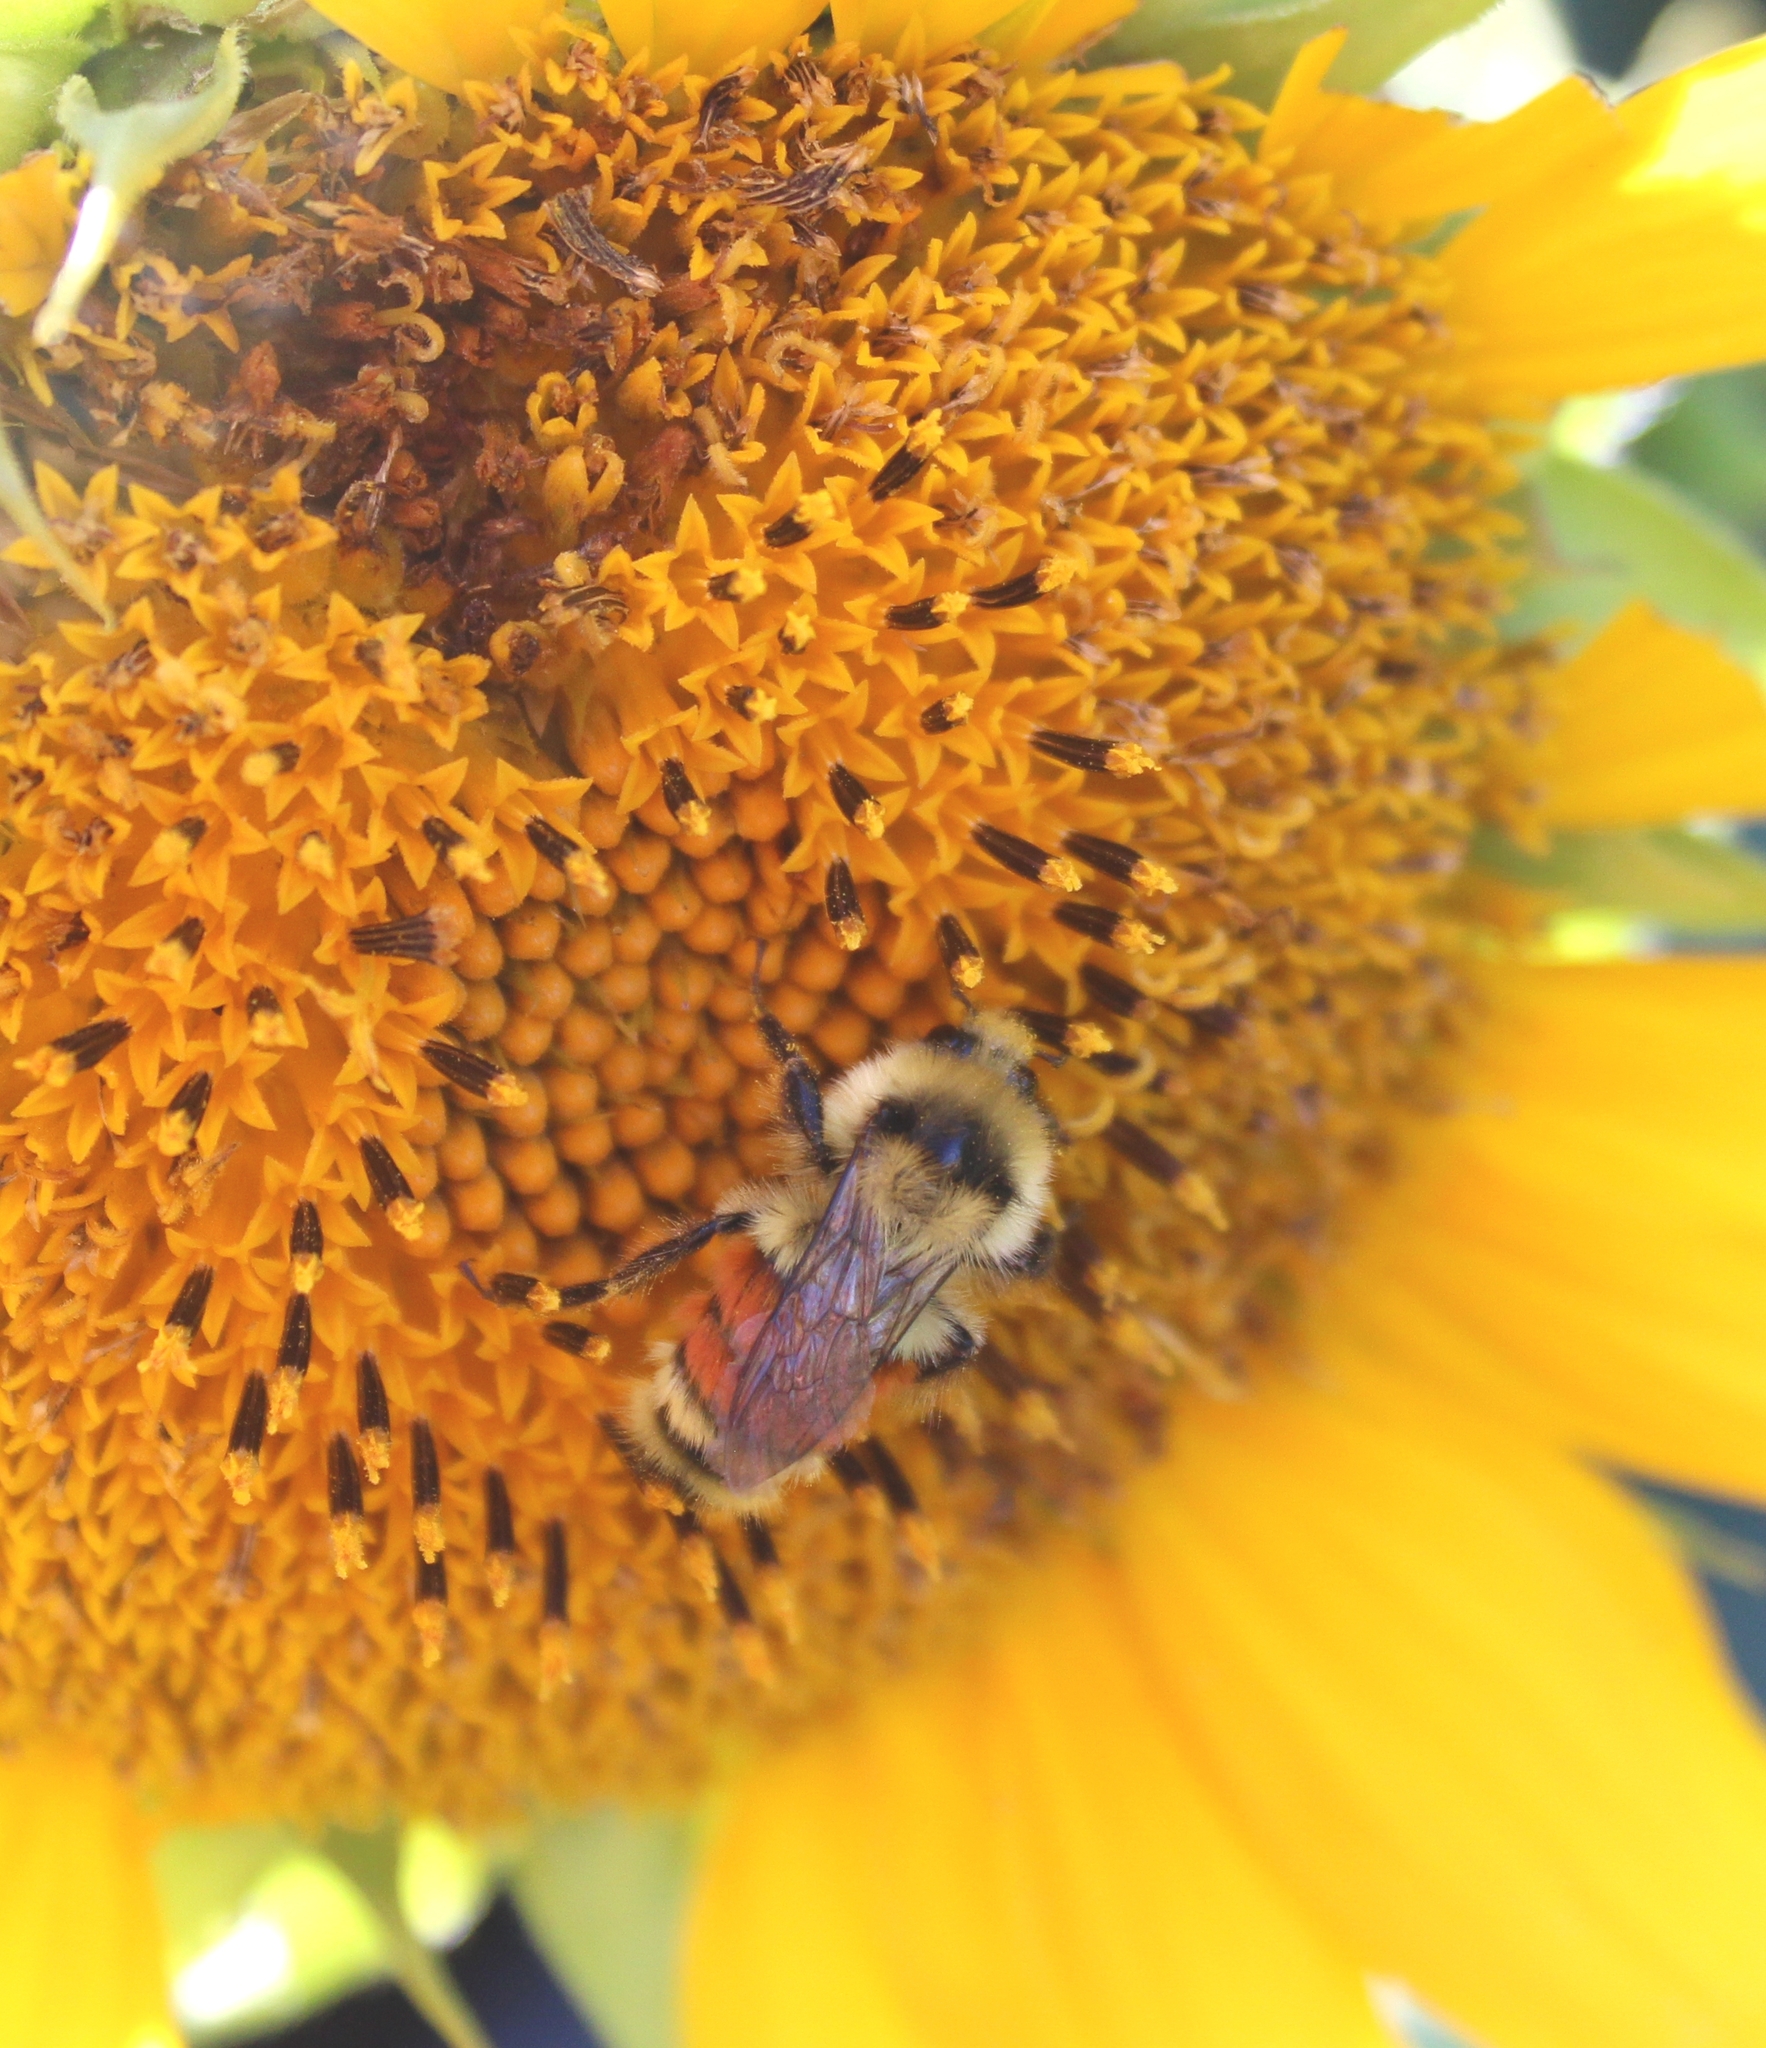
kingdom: Animalia
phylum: Arthropoda
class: Insecta
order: Hymenoptera
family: Apidae
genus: Bombus
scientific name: Bombus huntii
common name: Hunt bumble bee
